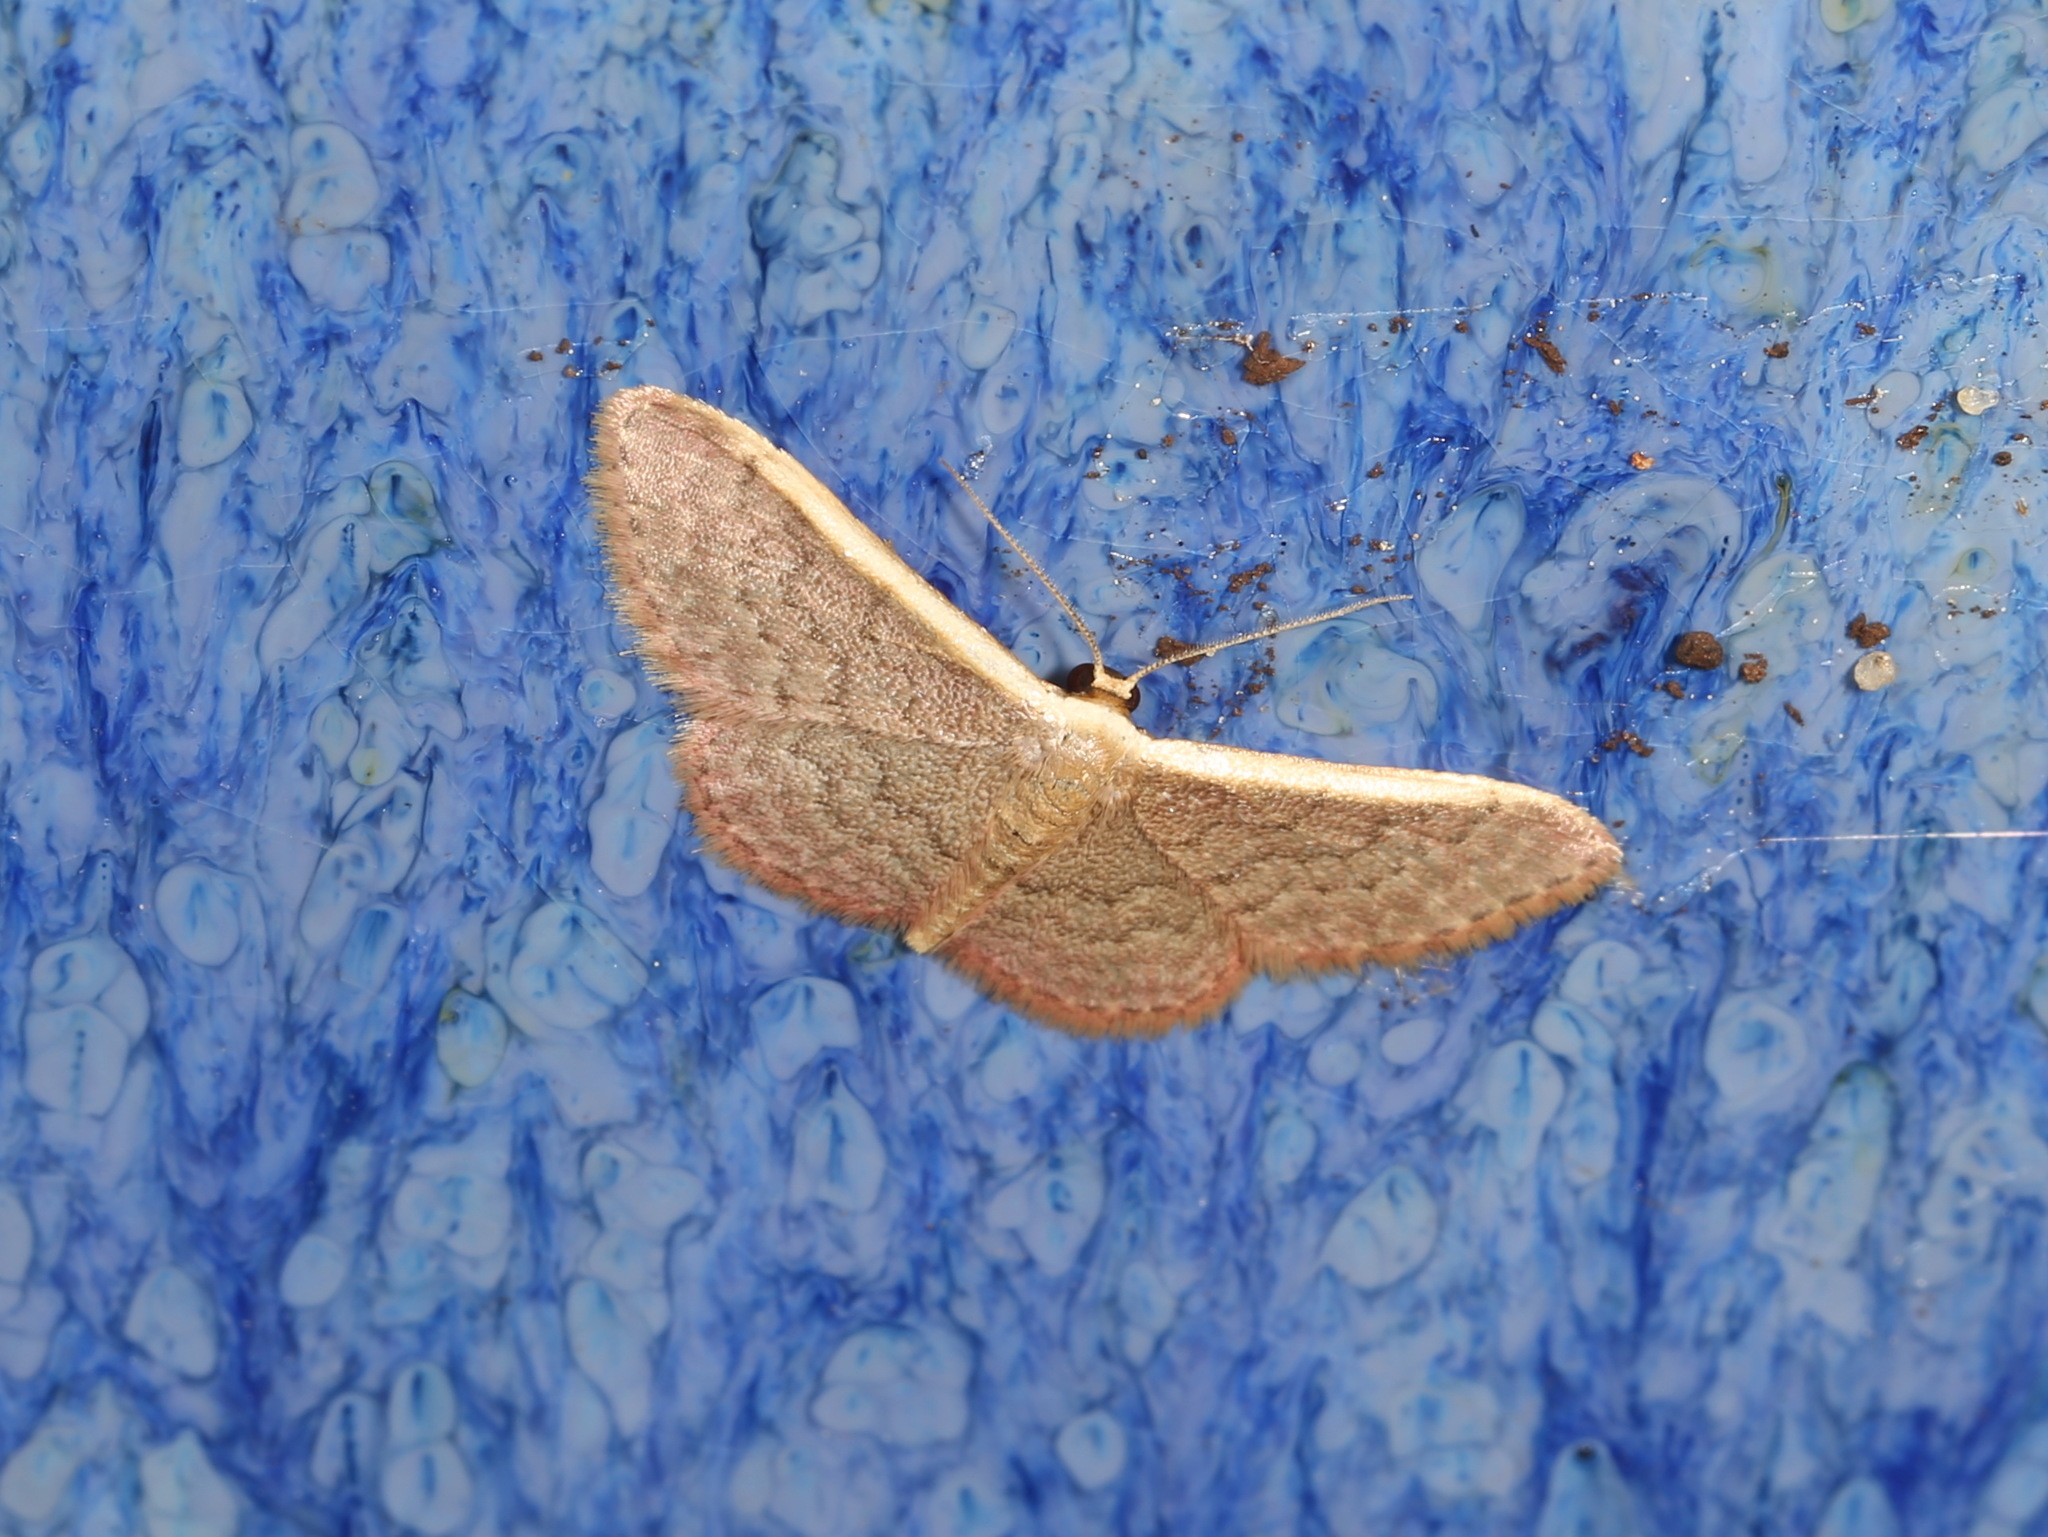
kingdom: Animalia
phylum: Arthropoda
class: Insecta
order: Lepidoptera
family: Geometridae
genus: Idaea
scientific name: Idaea costaria
